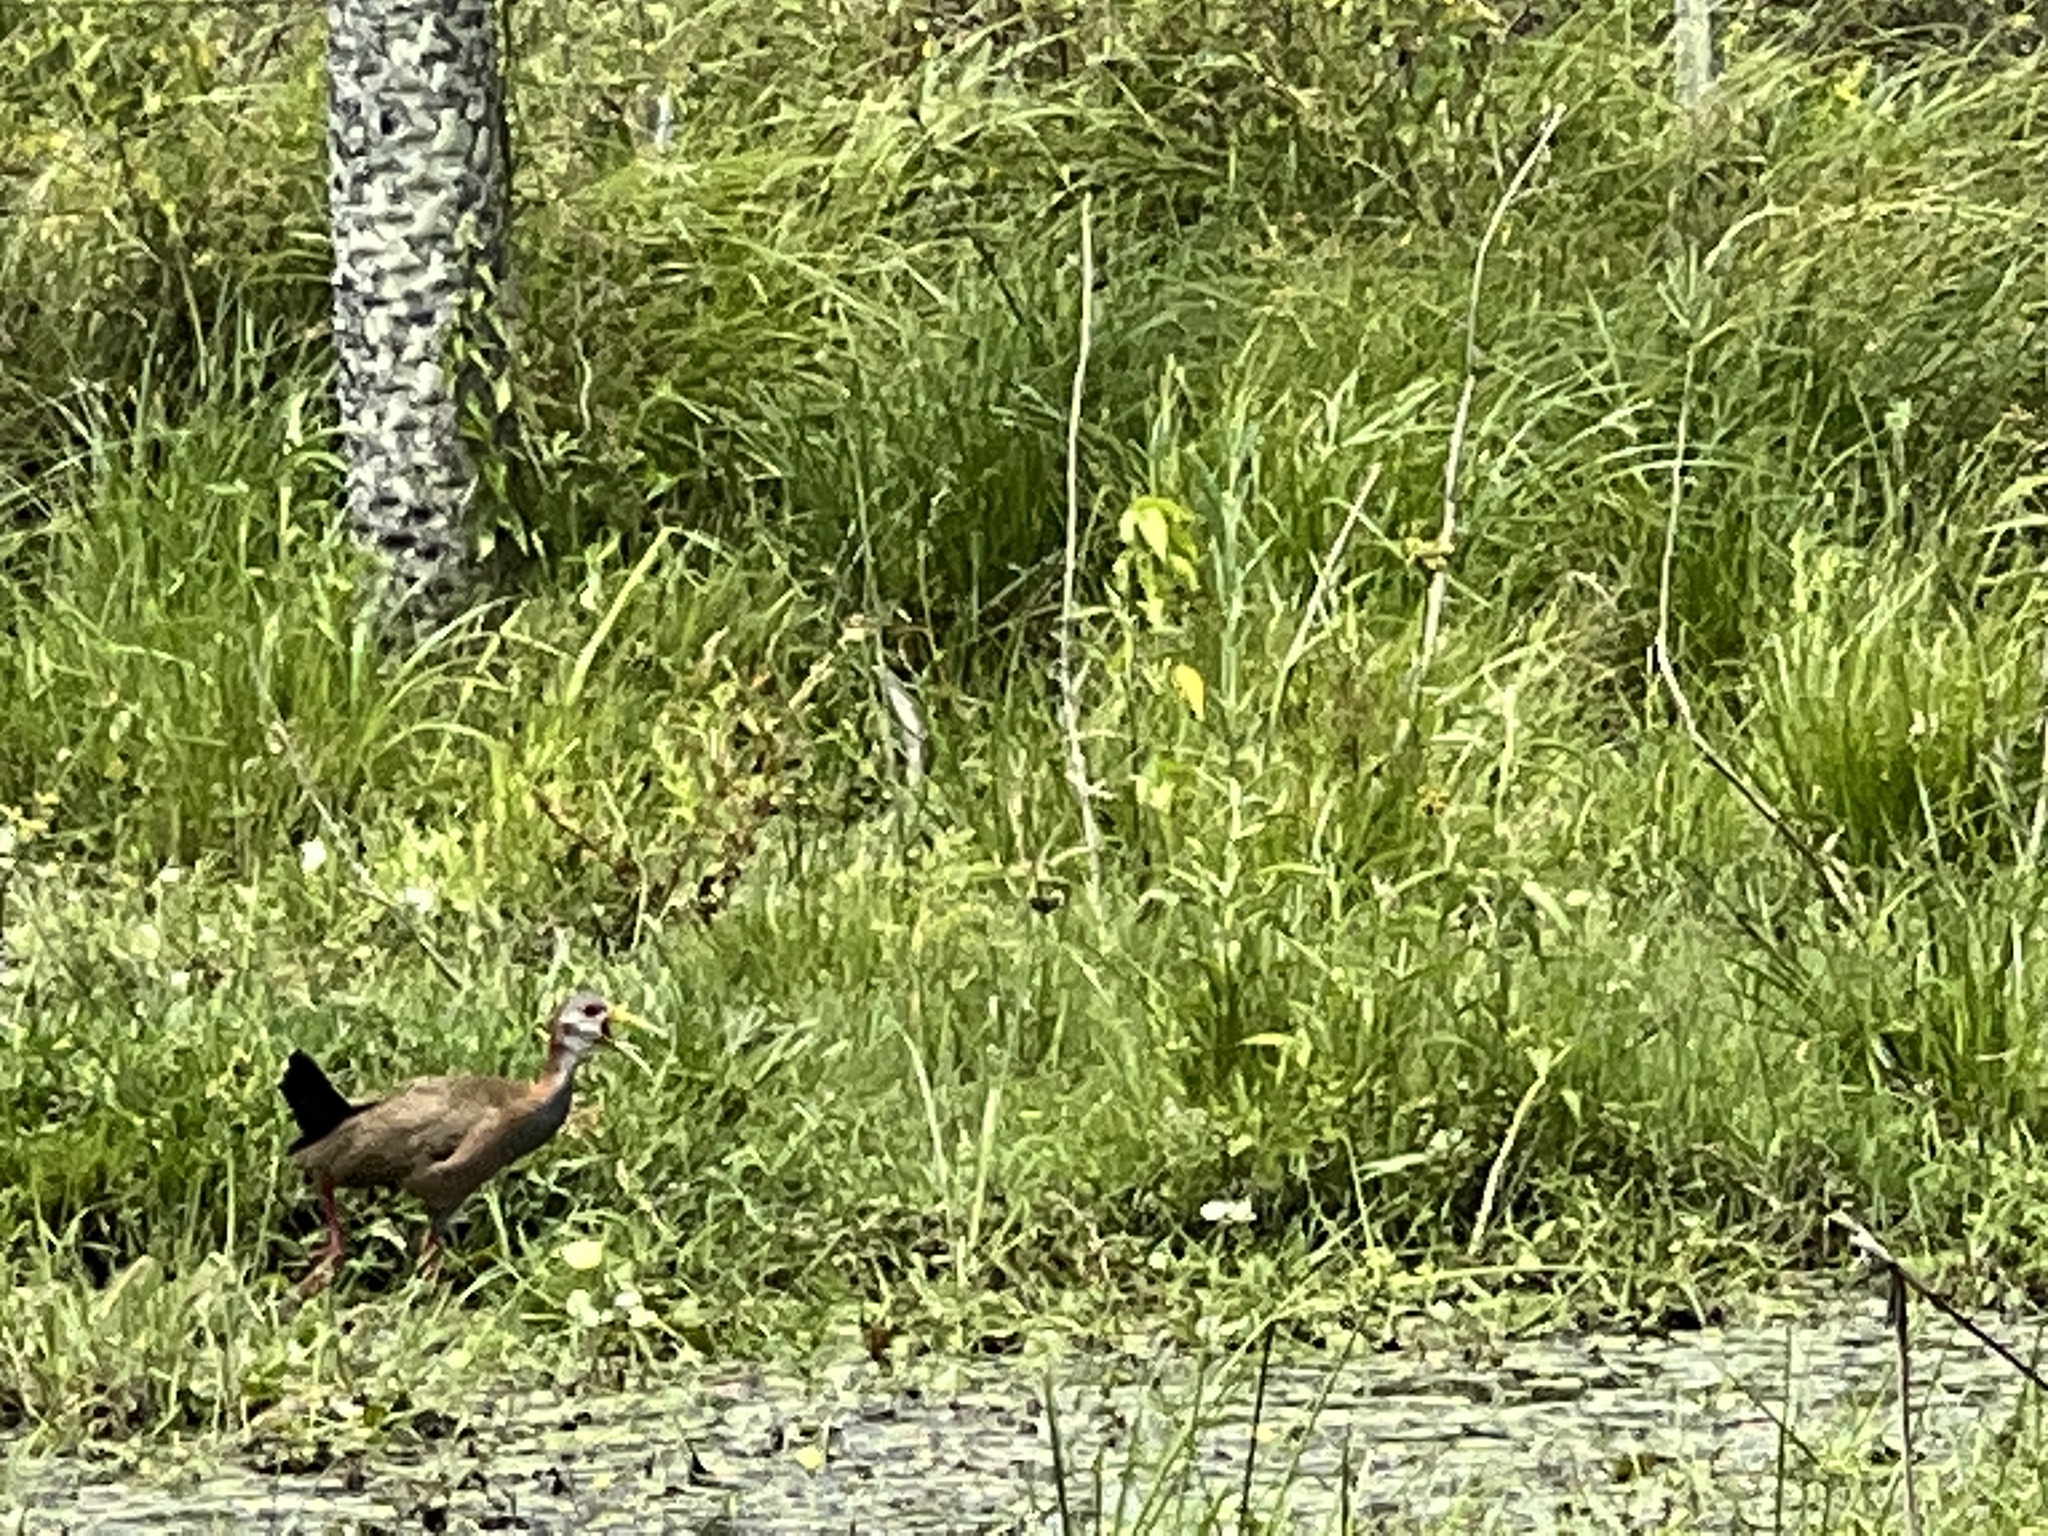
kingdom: Animalia
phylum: Chordata
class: Aves
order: Gruiformes
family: Rallidae
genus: Aramides
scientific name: Aramides ypecaha
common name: Giant wood rail
